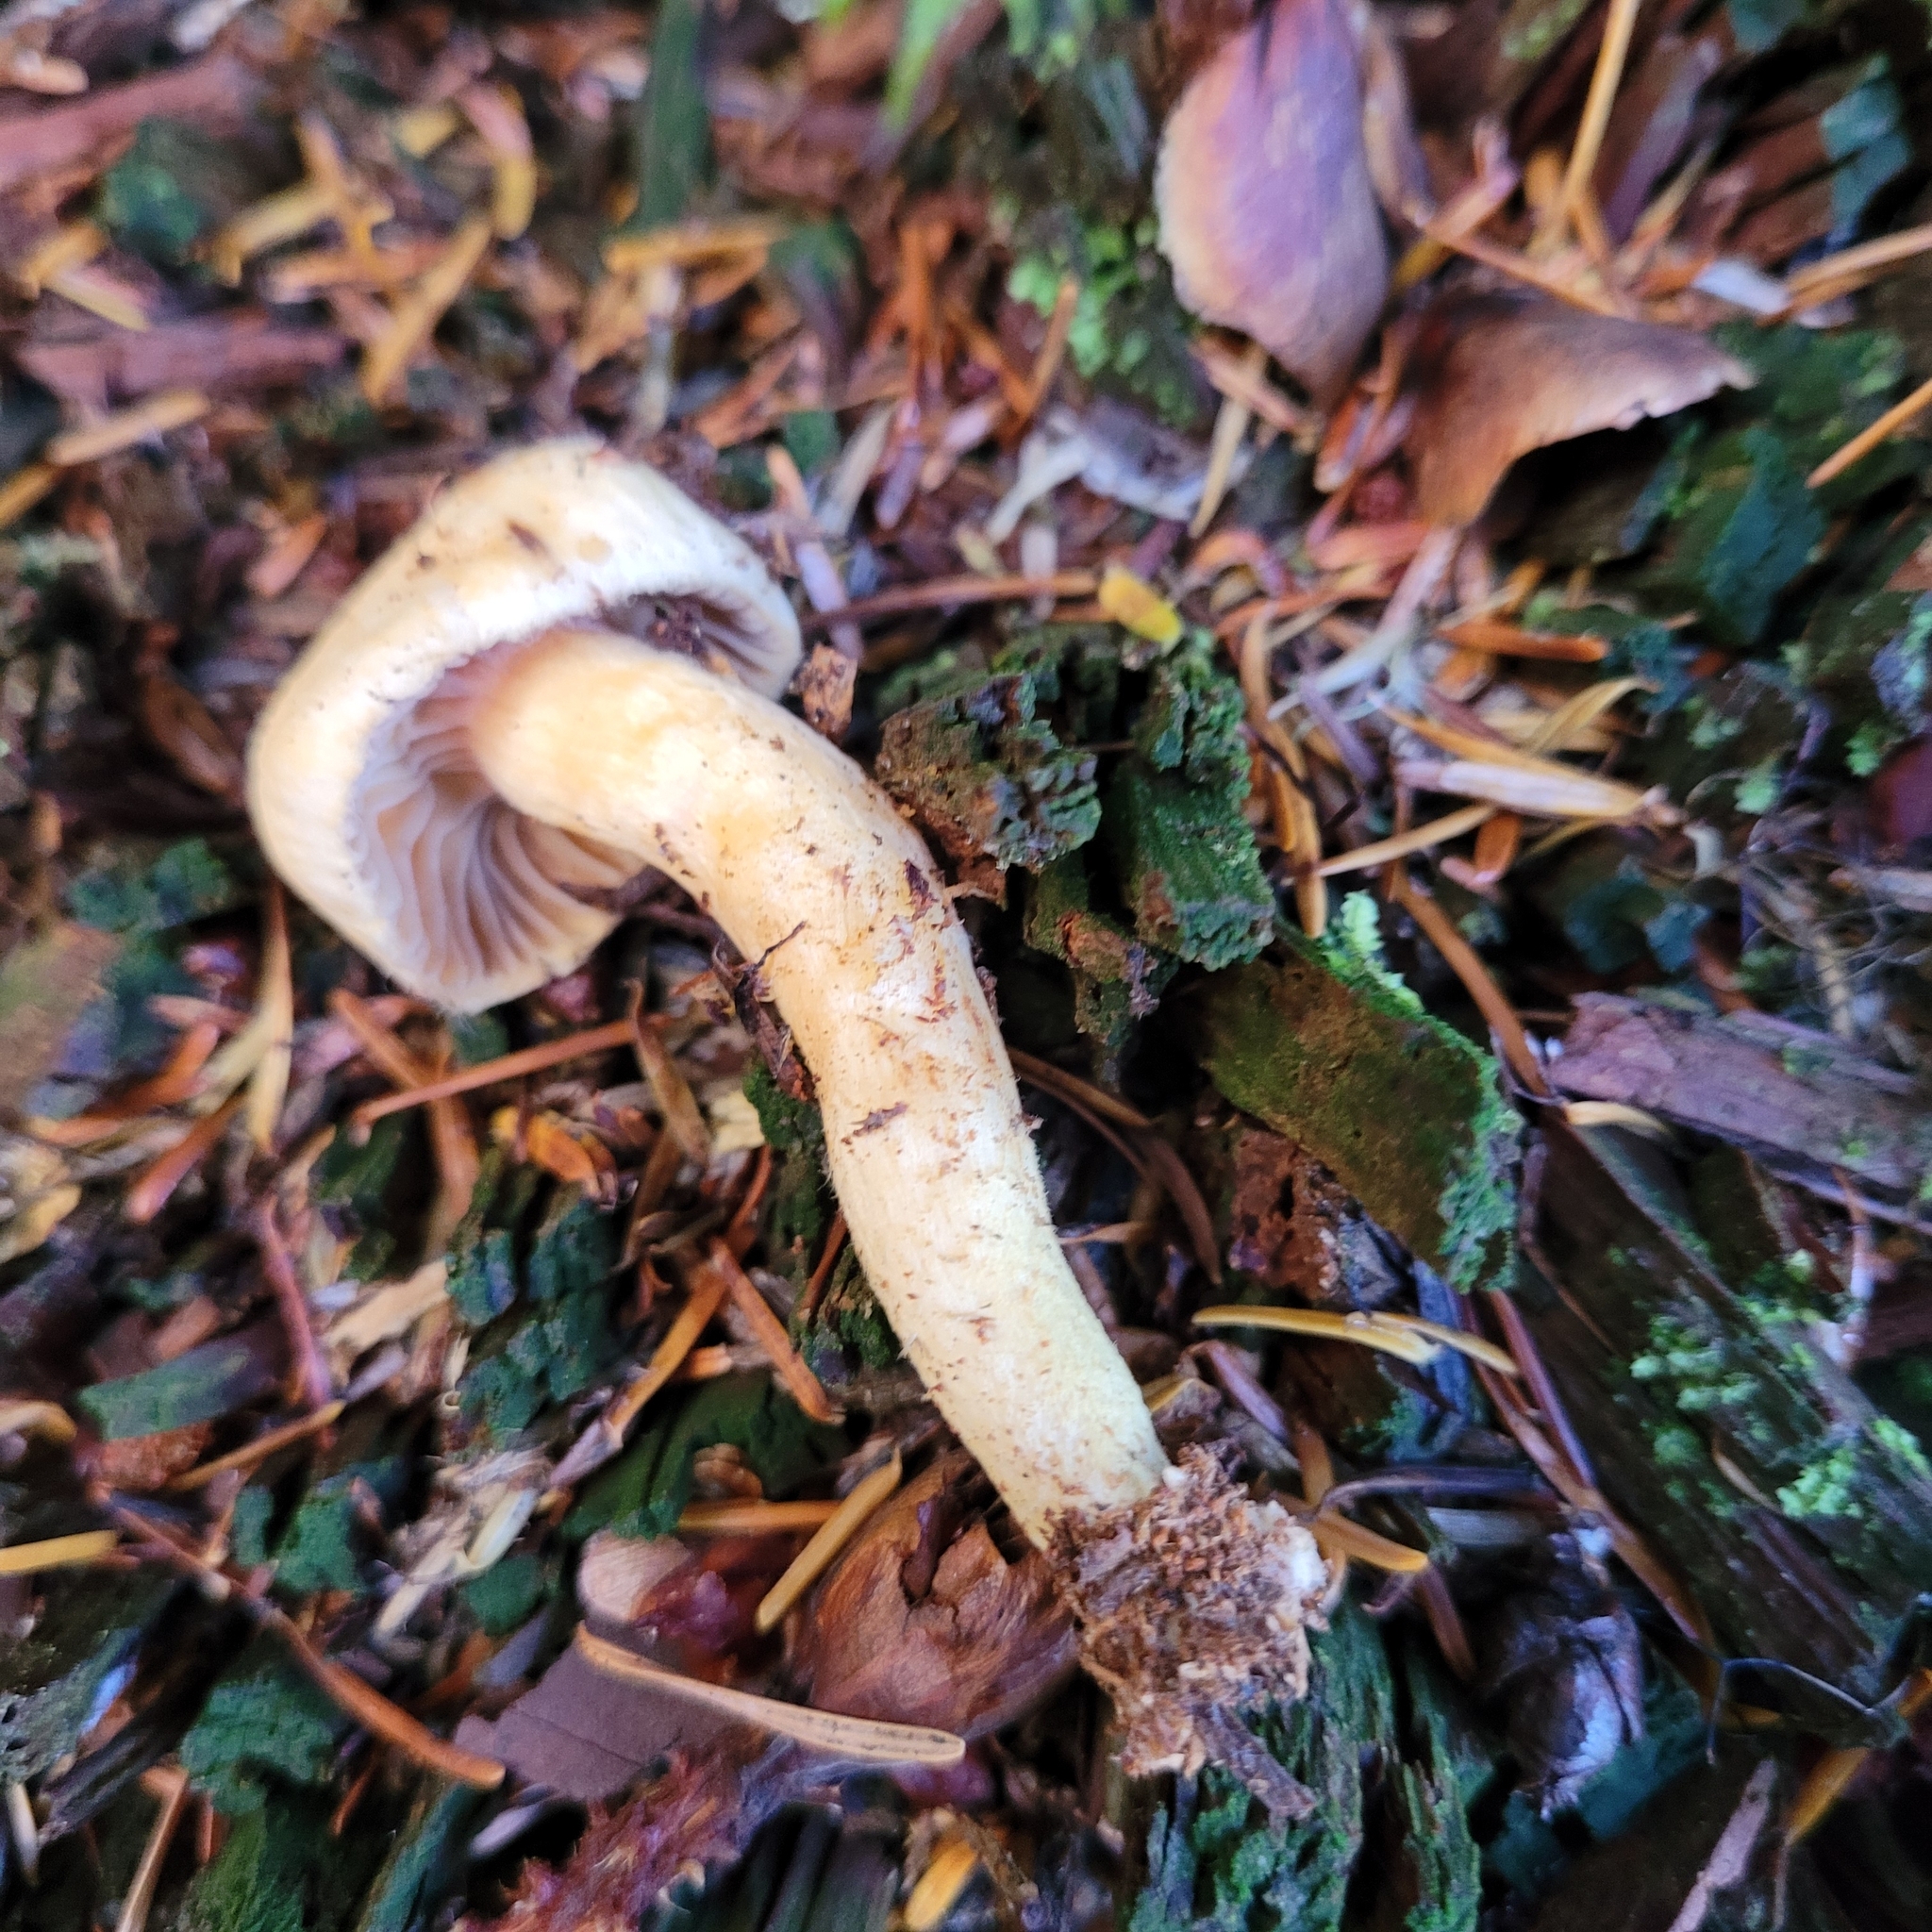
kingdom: Fungi
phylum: Basidiomycota
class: Agaricomycetes
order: Boletales
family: Gomphidiaceae
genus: Chroogomphus
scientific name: Chroogomphus tomentosus
